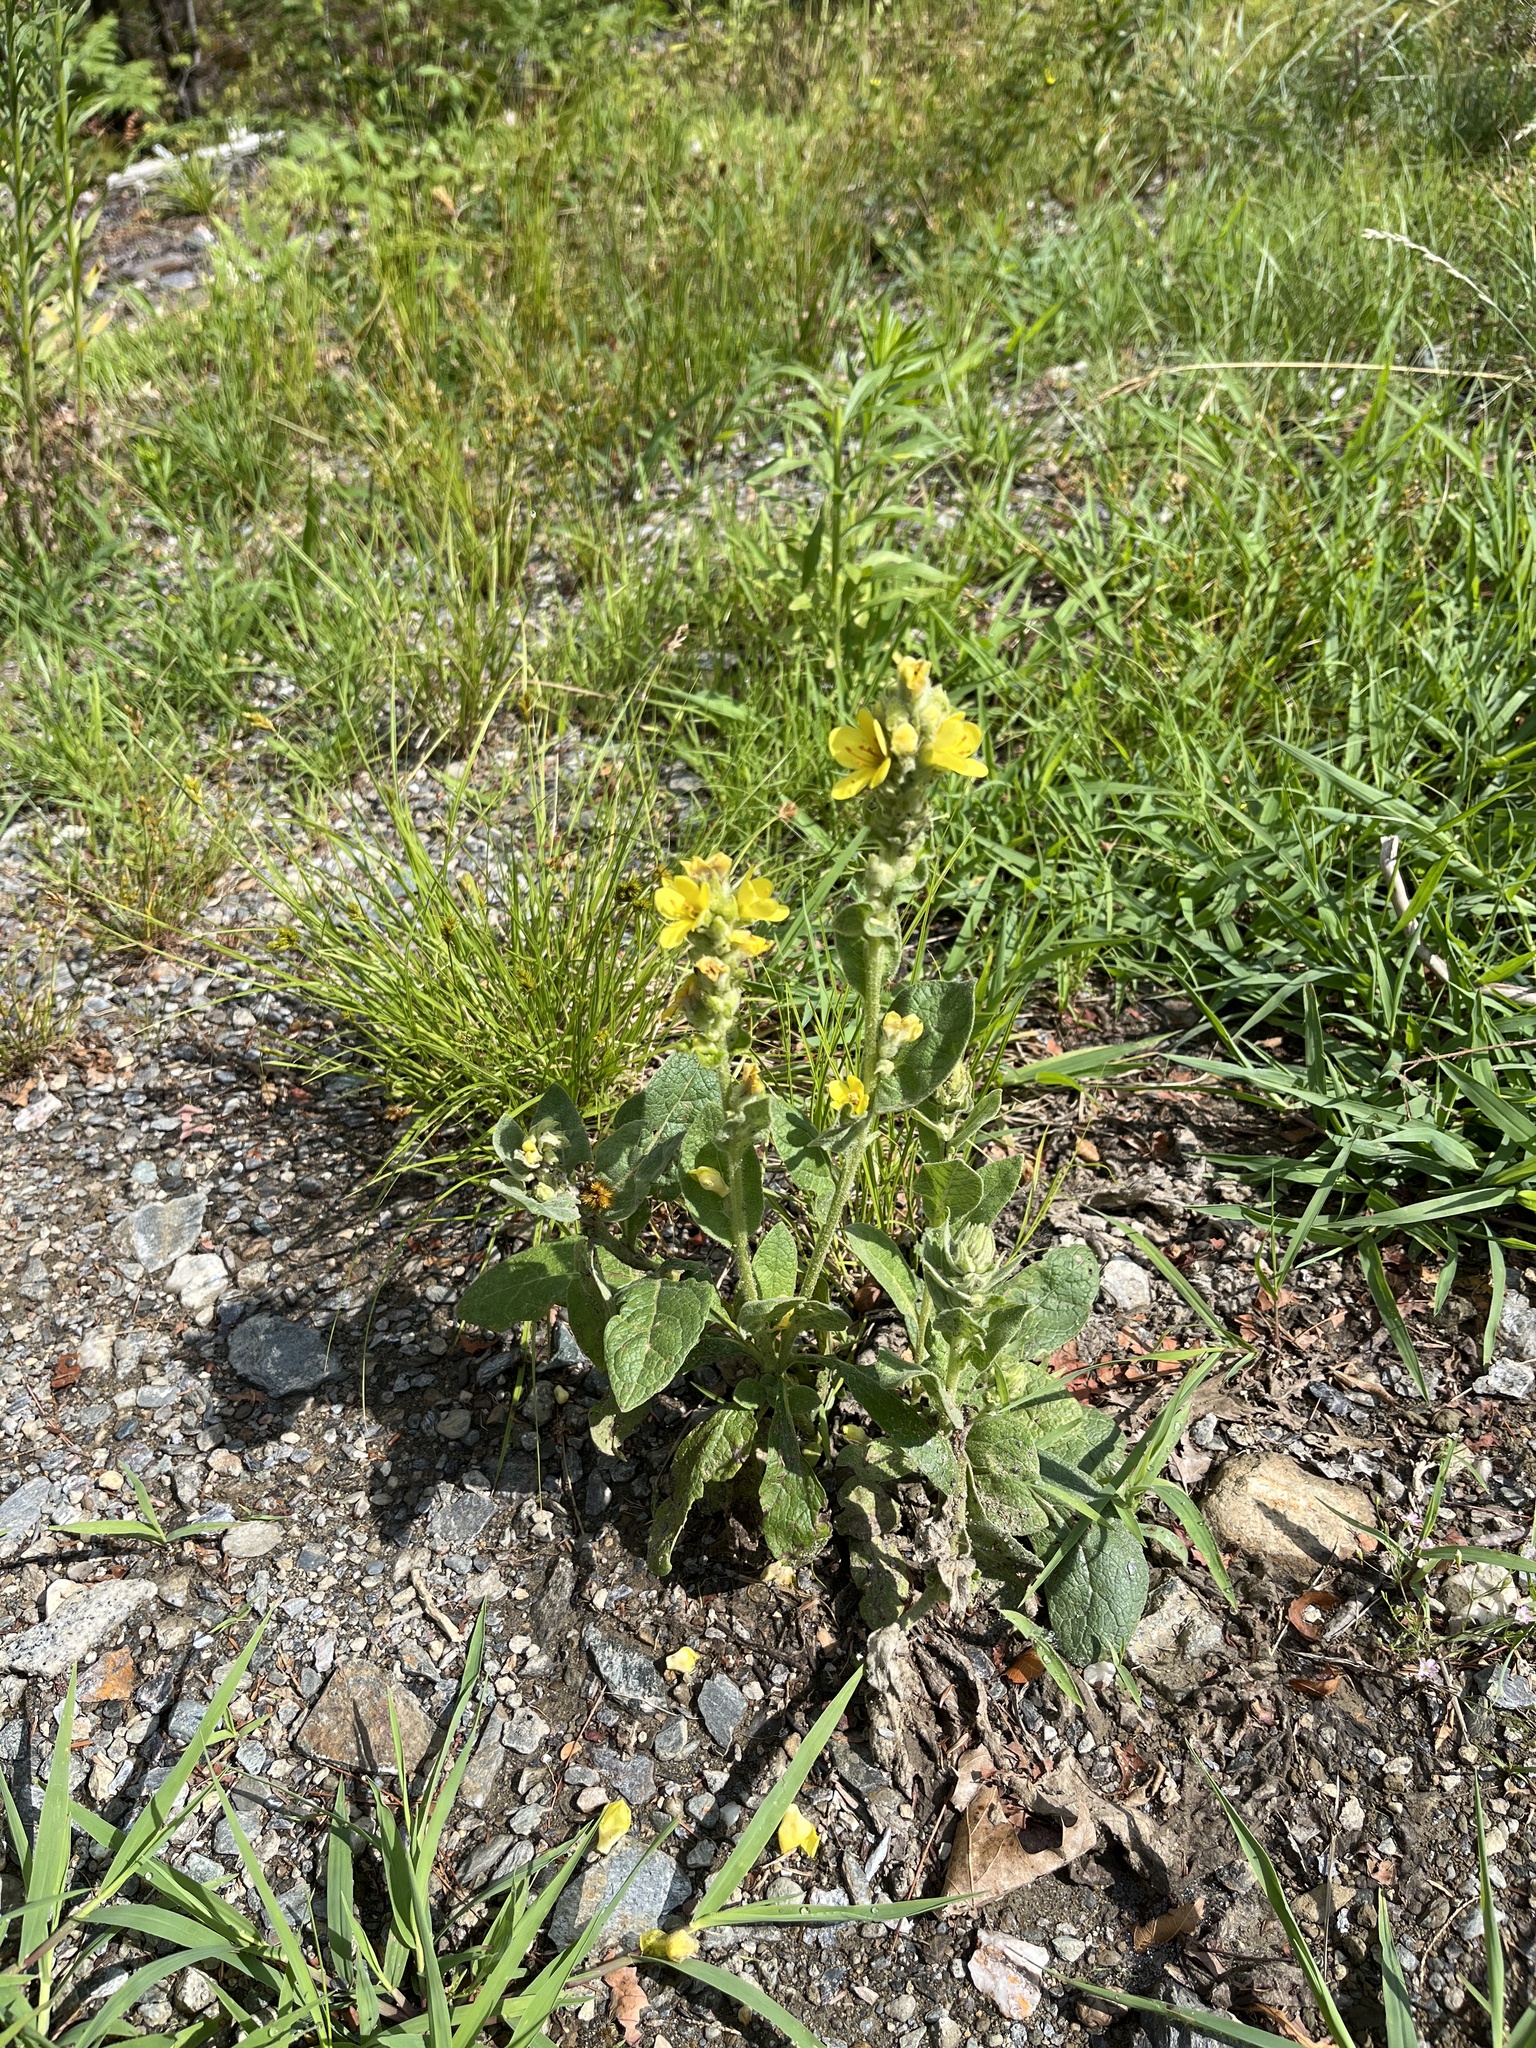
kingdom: Plantae
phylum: Tracheophyta
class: Magnoliopsida
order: Lamiales
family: Scrophulariaceae
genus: Verbascum
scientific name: Verbascum thapsus
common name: Common mullein
